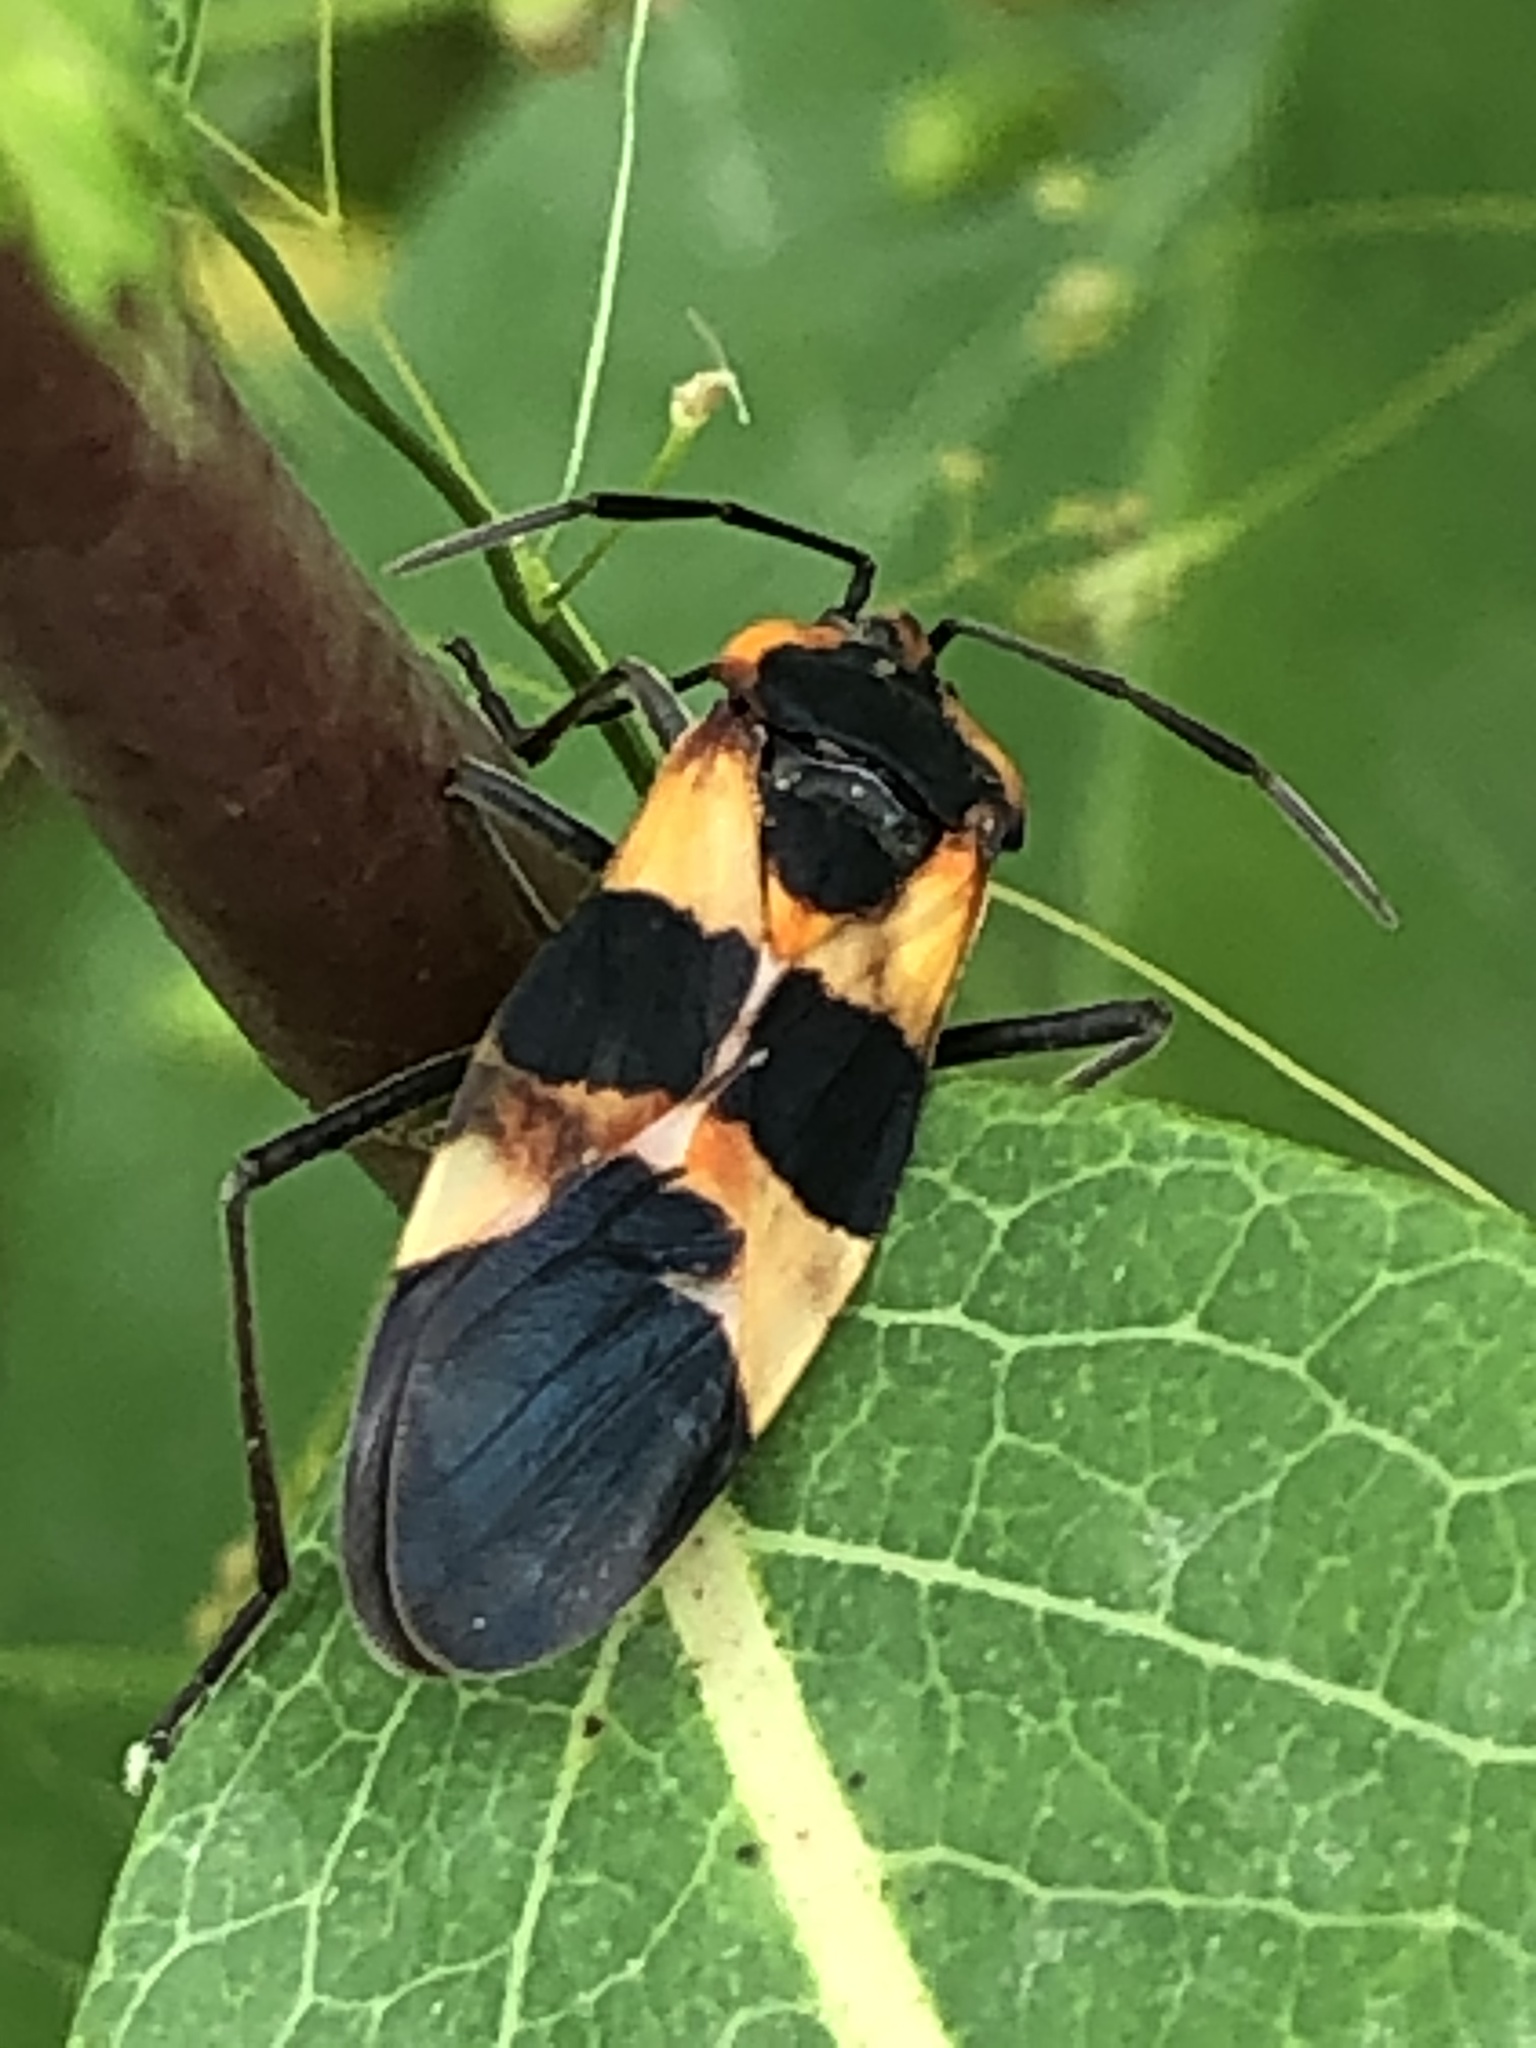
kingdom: Animalia
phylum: Arthropoda
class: Insecta
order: Hemiptera
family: Lygaeidae
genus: Oncopeltus
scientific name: Oncopeltus fasciatus
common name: Large milkweed bug
